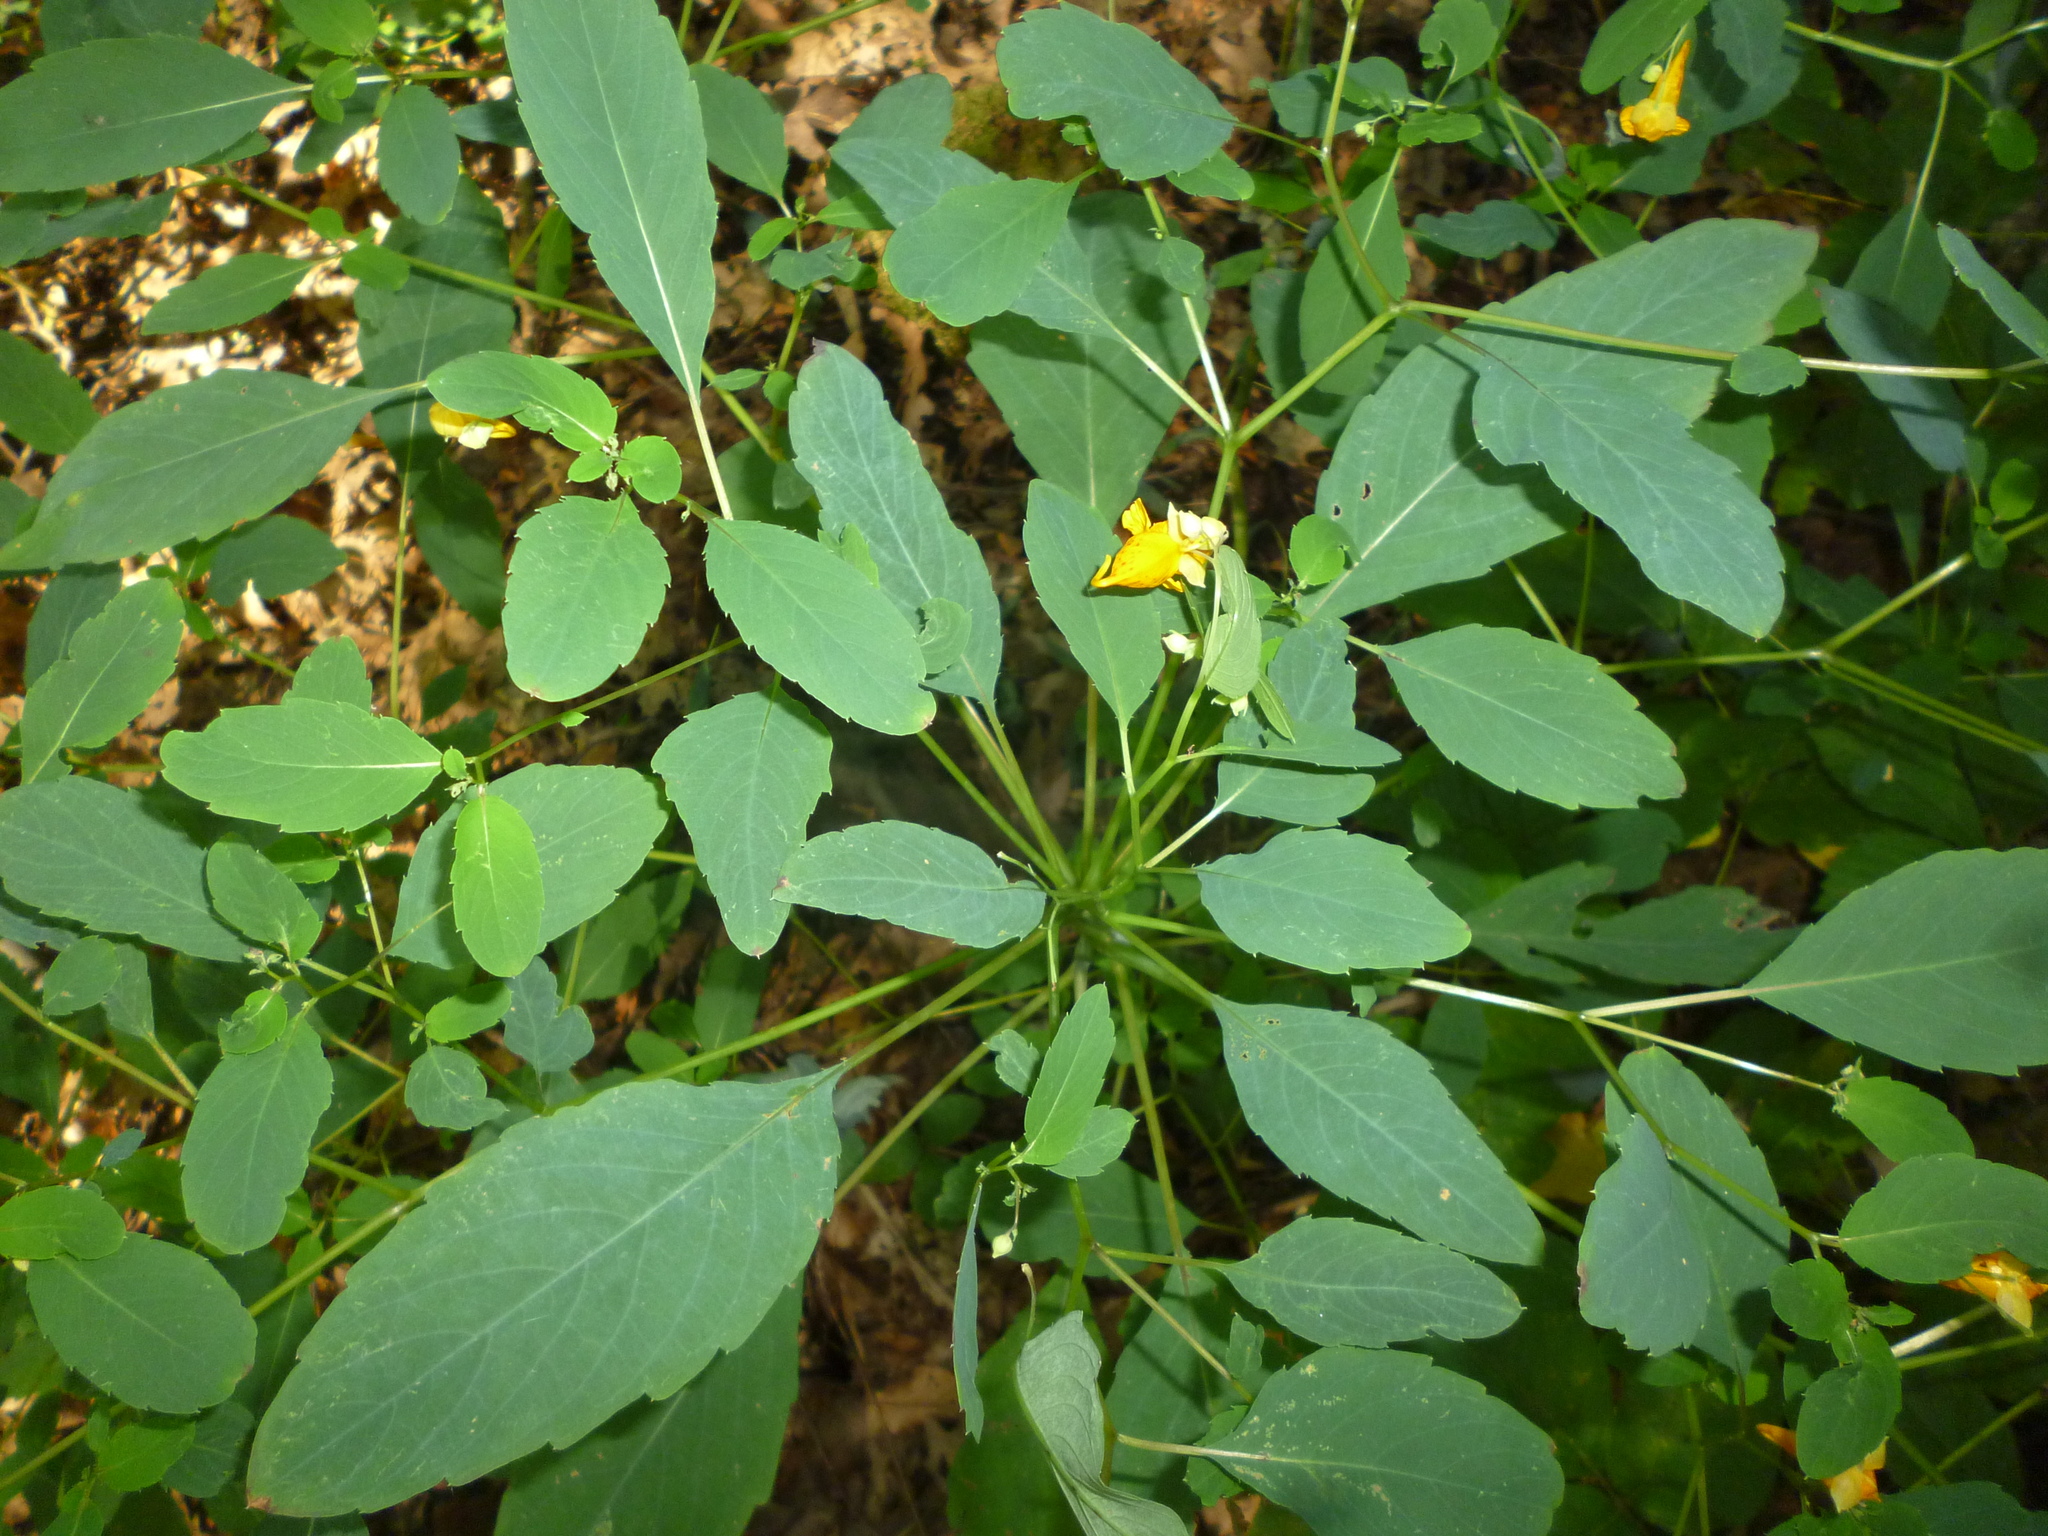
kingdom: Plantae
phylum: Tracheophyta
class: Magnoliopsida
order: Ericales
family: Balsaminaceae
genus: Impatiens
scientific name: Impatiens capensis
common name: Orange balsam
